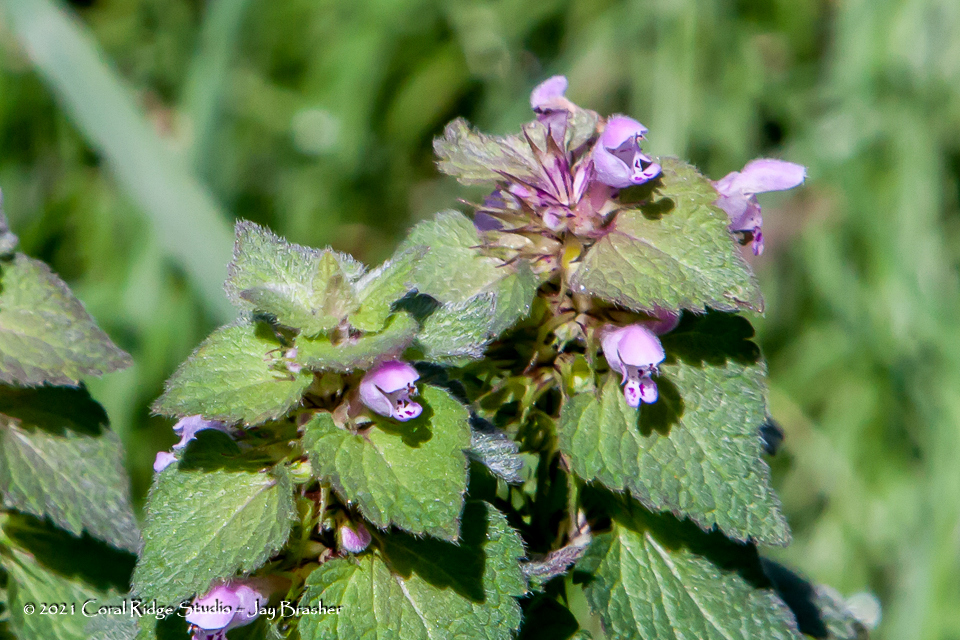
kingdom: Plantae
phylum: Tracheophyta
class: Magnoliopsida
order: Lamiales
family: Lamiaceae
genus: Lamium
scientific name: Lamium purpureum
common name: Red dead-nettle
